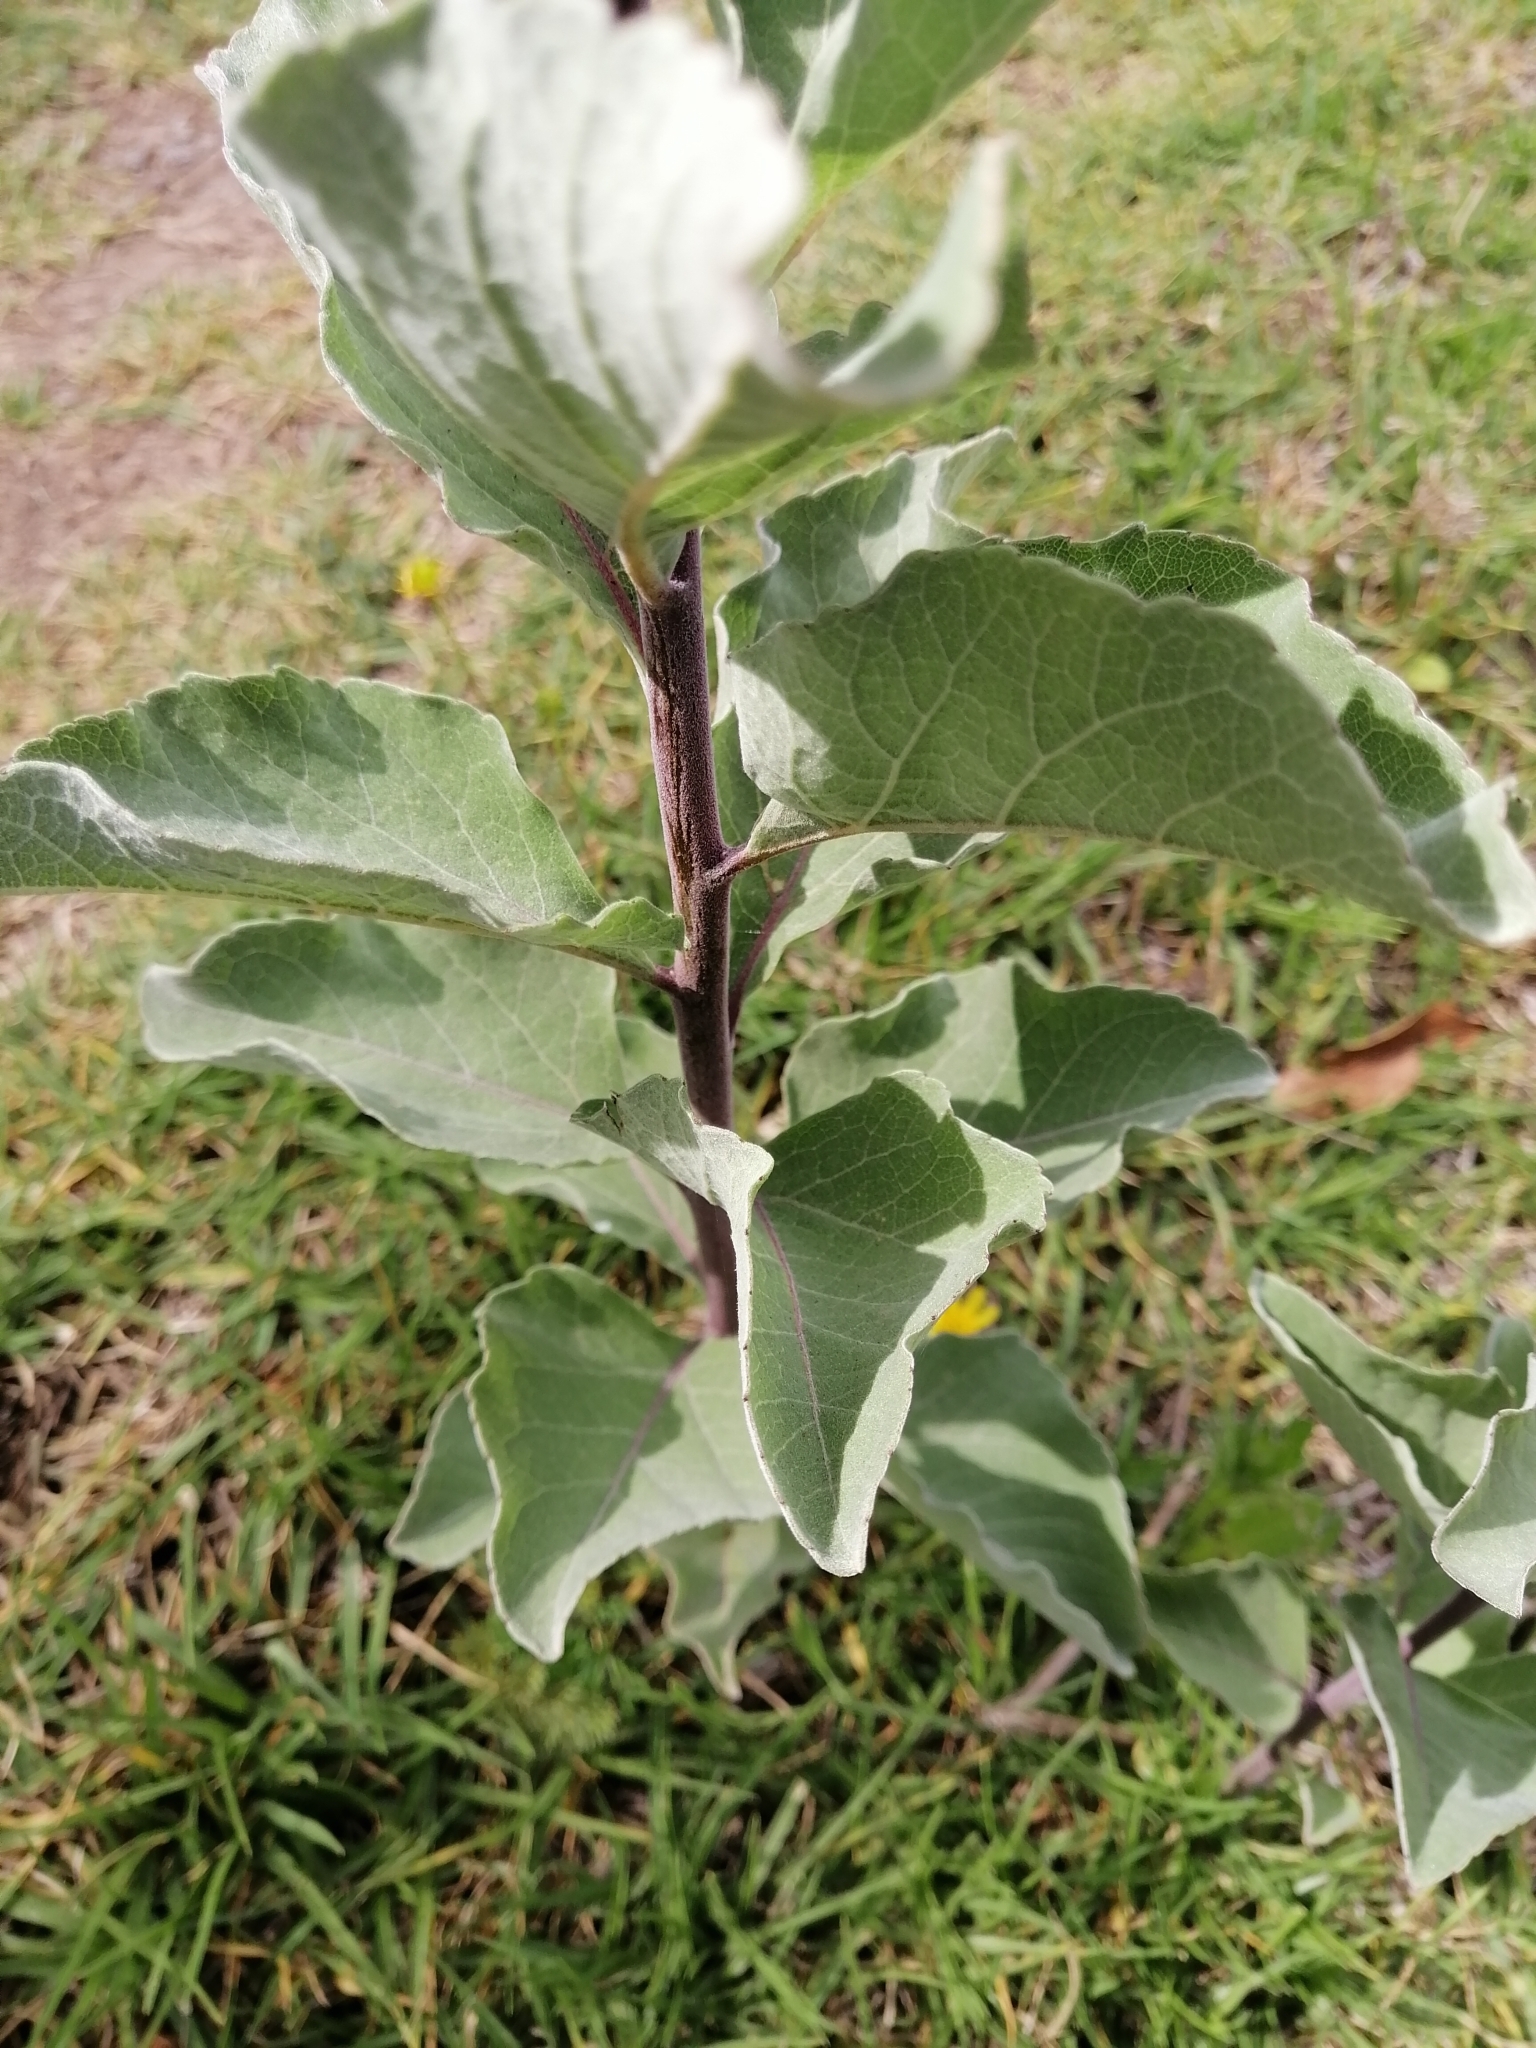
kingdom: Plantae
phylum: Tracheophyta
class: Magnoliopsida
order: Asterales
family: Asteraceae
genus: Zaluzania
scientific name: Zaluzania megacephala
